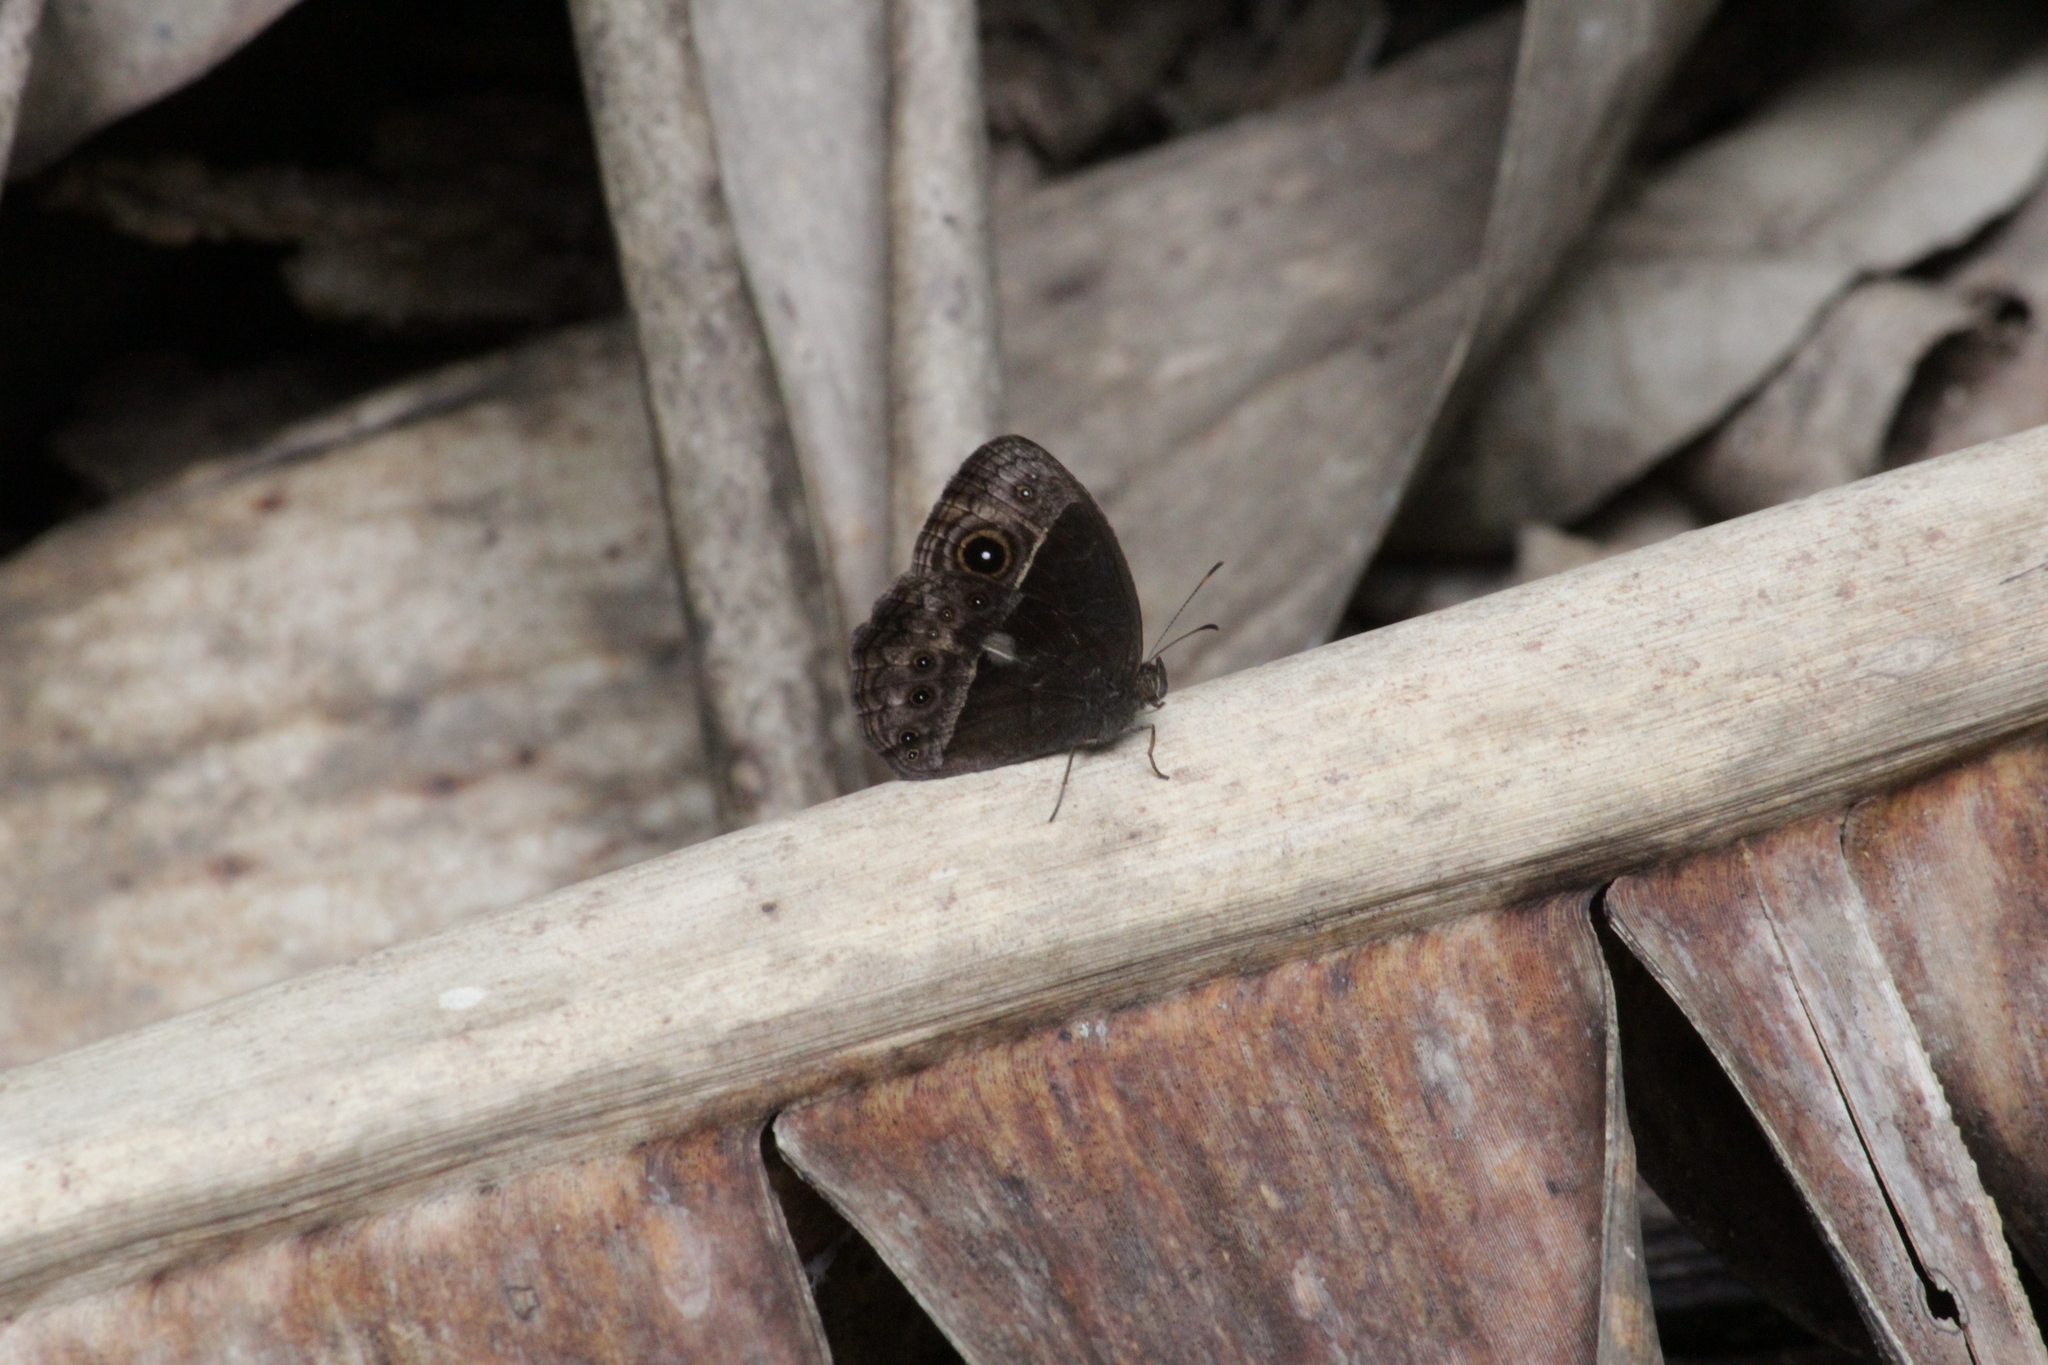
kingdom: Animalia
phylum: Arthropoda
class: Insecta
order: Lepidoptera
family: Nymphalidae
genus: Mycalesis
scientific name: Mycalesis rhacotis
